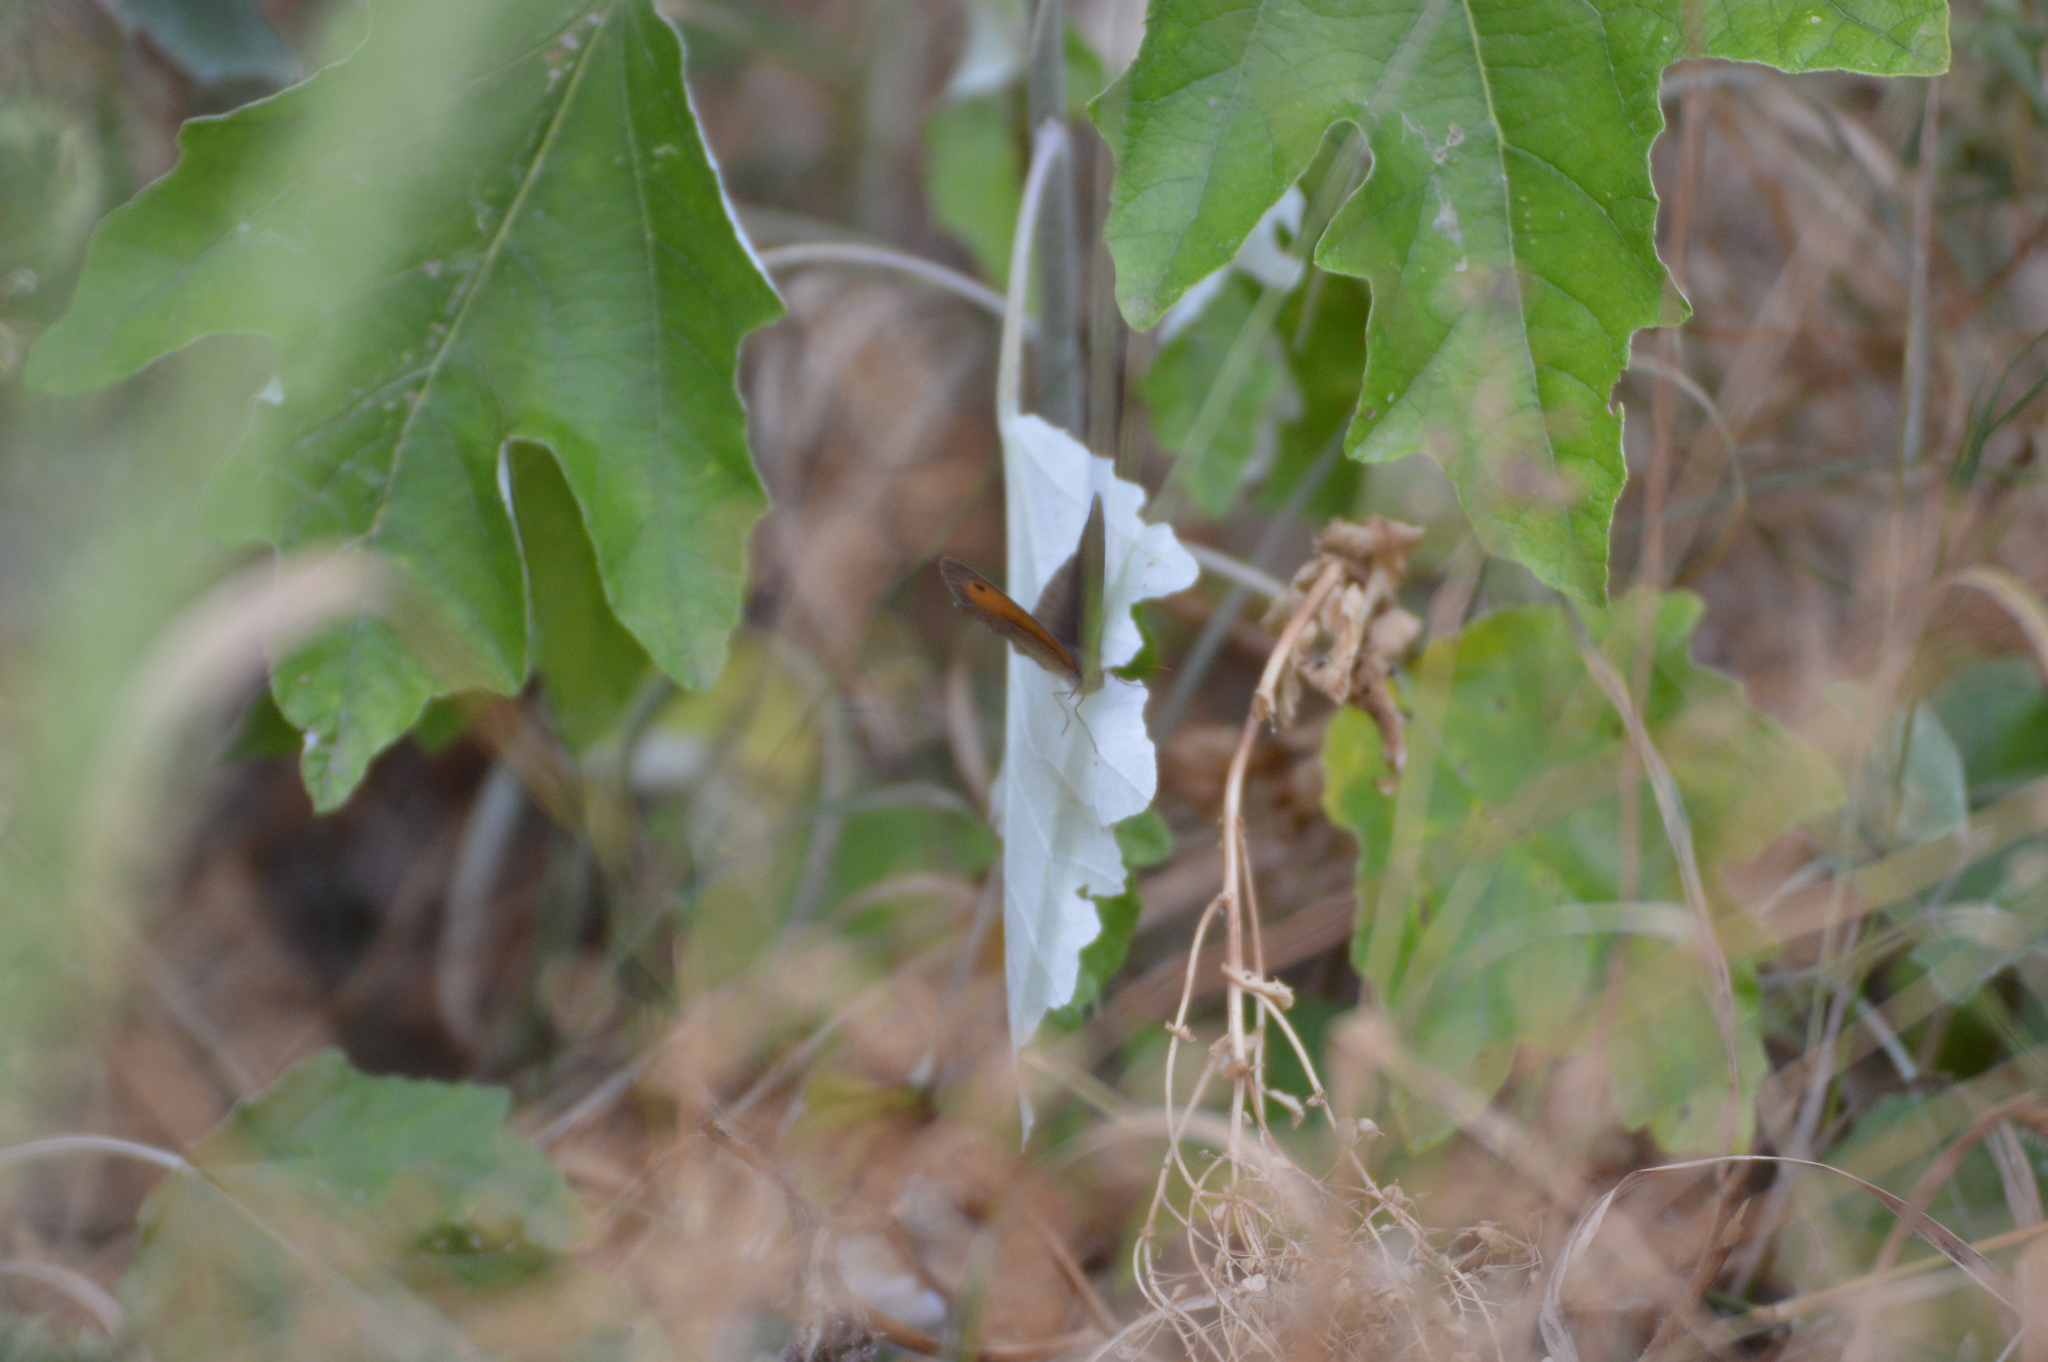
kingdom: Animalia
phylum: Arthropoda
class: Insecta
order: Lepidoptera
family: Nymphalidae
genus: Maniola
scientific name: Maniola jurtina
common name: Meadow brown
